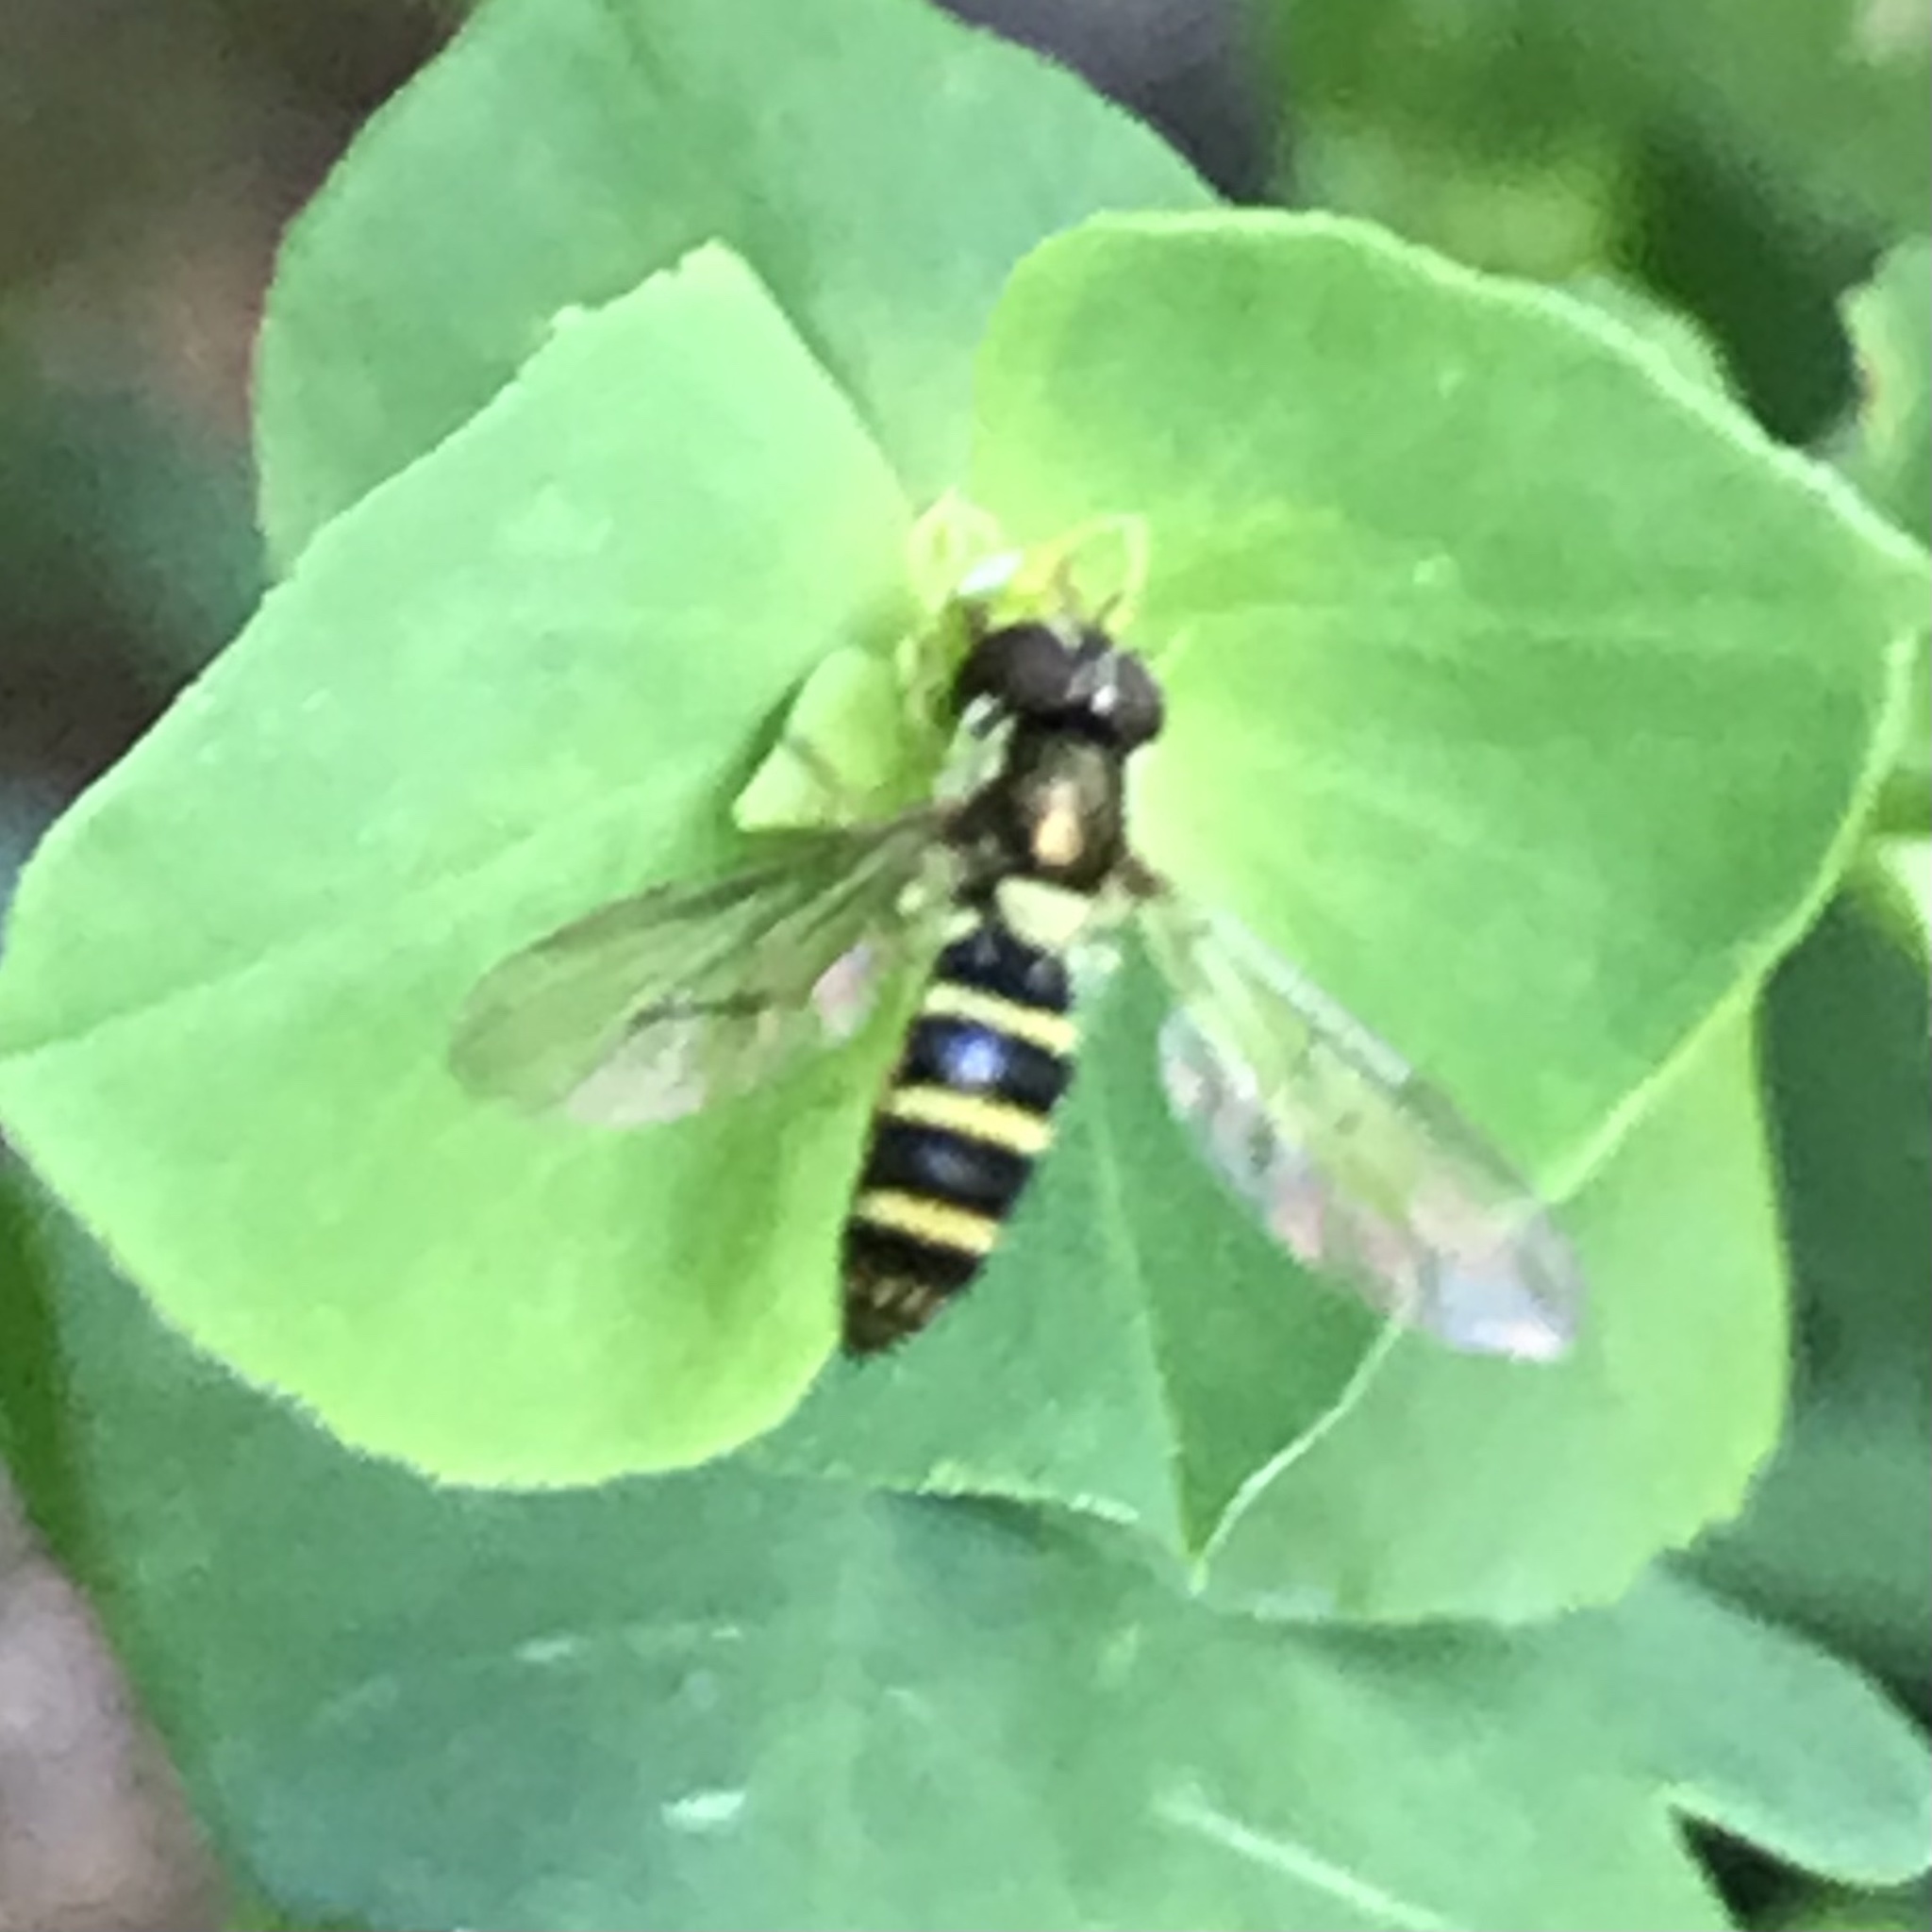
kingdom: Animalia
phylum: Arthropoda
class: Insecta
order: Diptera
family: Syrphidae
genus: Fazia
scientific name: Fazia micrura
